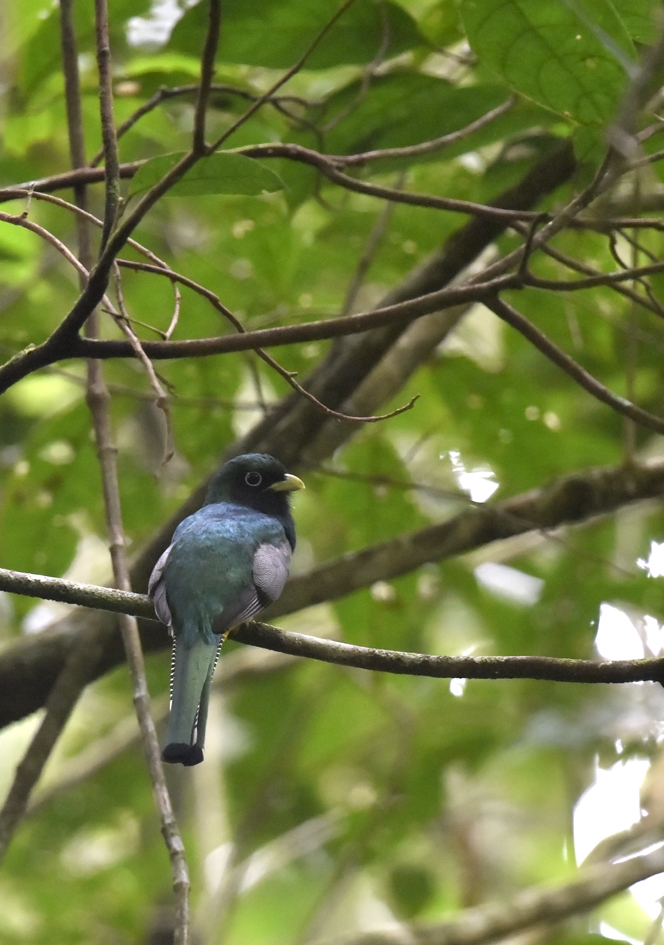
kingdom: Animalia
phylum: Chordata
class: Aves
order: Trogoniformes
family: Trogonidae
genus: Trogon
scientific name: Trogon rufus
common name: Black-throated trogon
